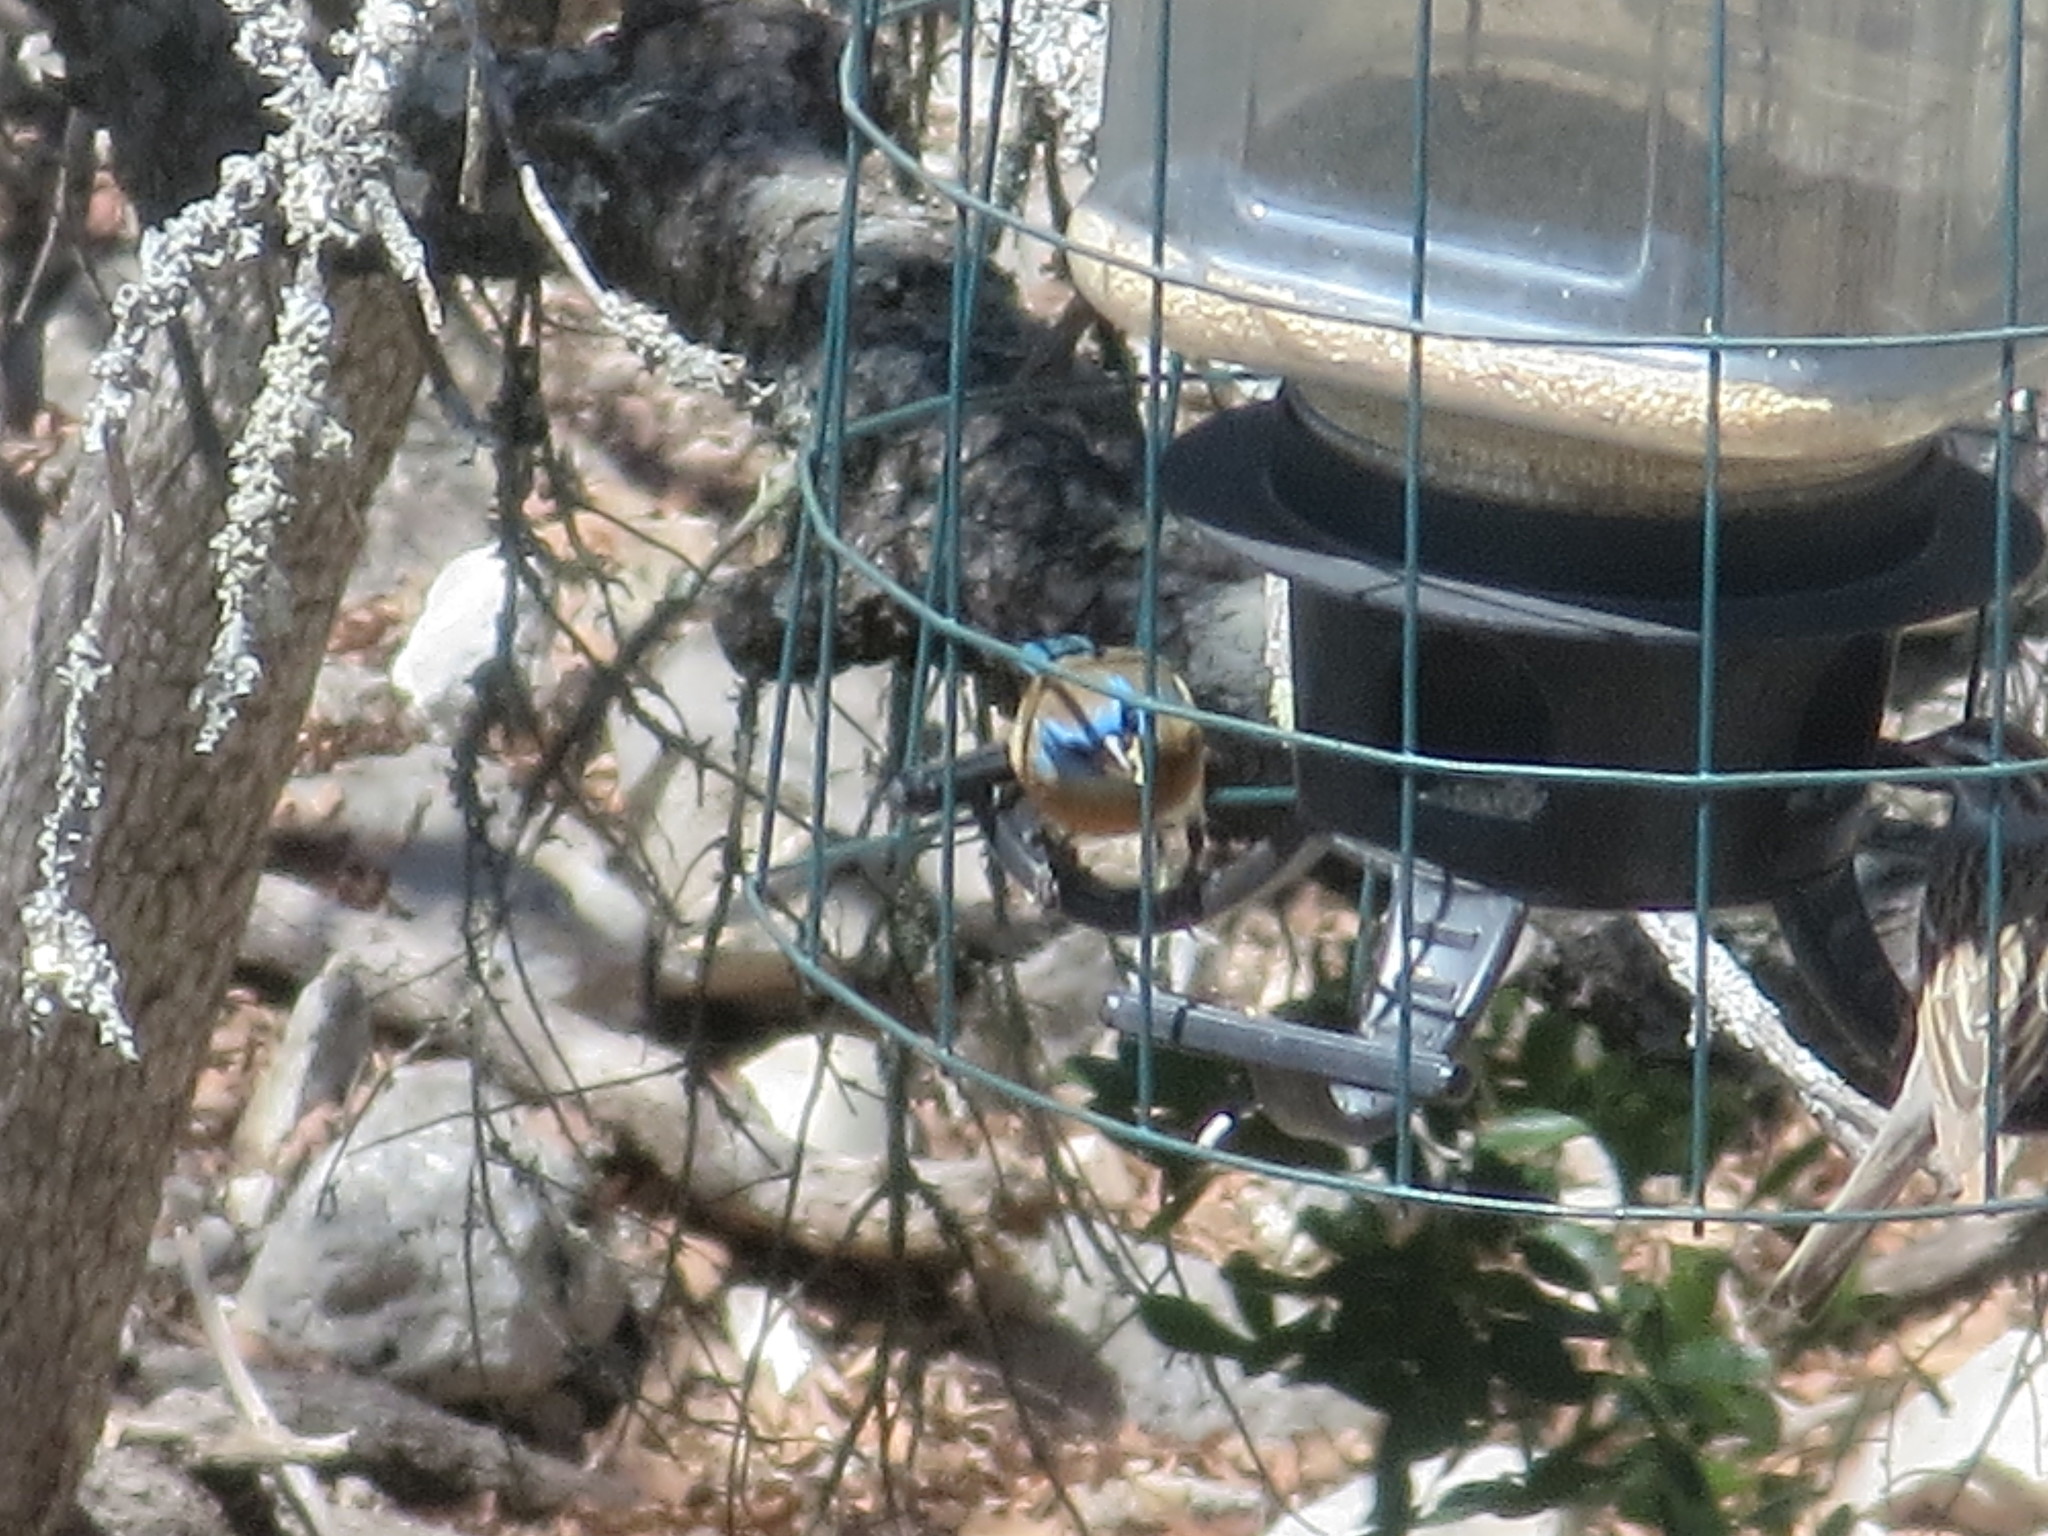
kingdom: Animalia
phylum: Chordata
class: Aves
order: Passeriformes
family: Cardinalidae
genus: Passerina
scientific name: Passerina amoena
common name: Lazuli bunting
